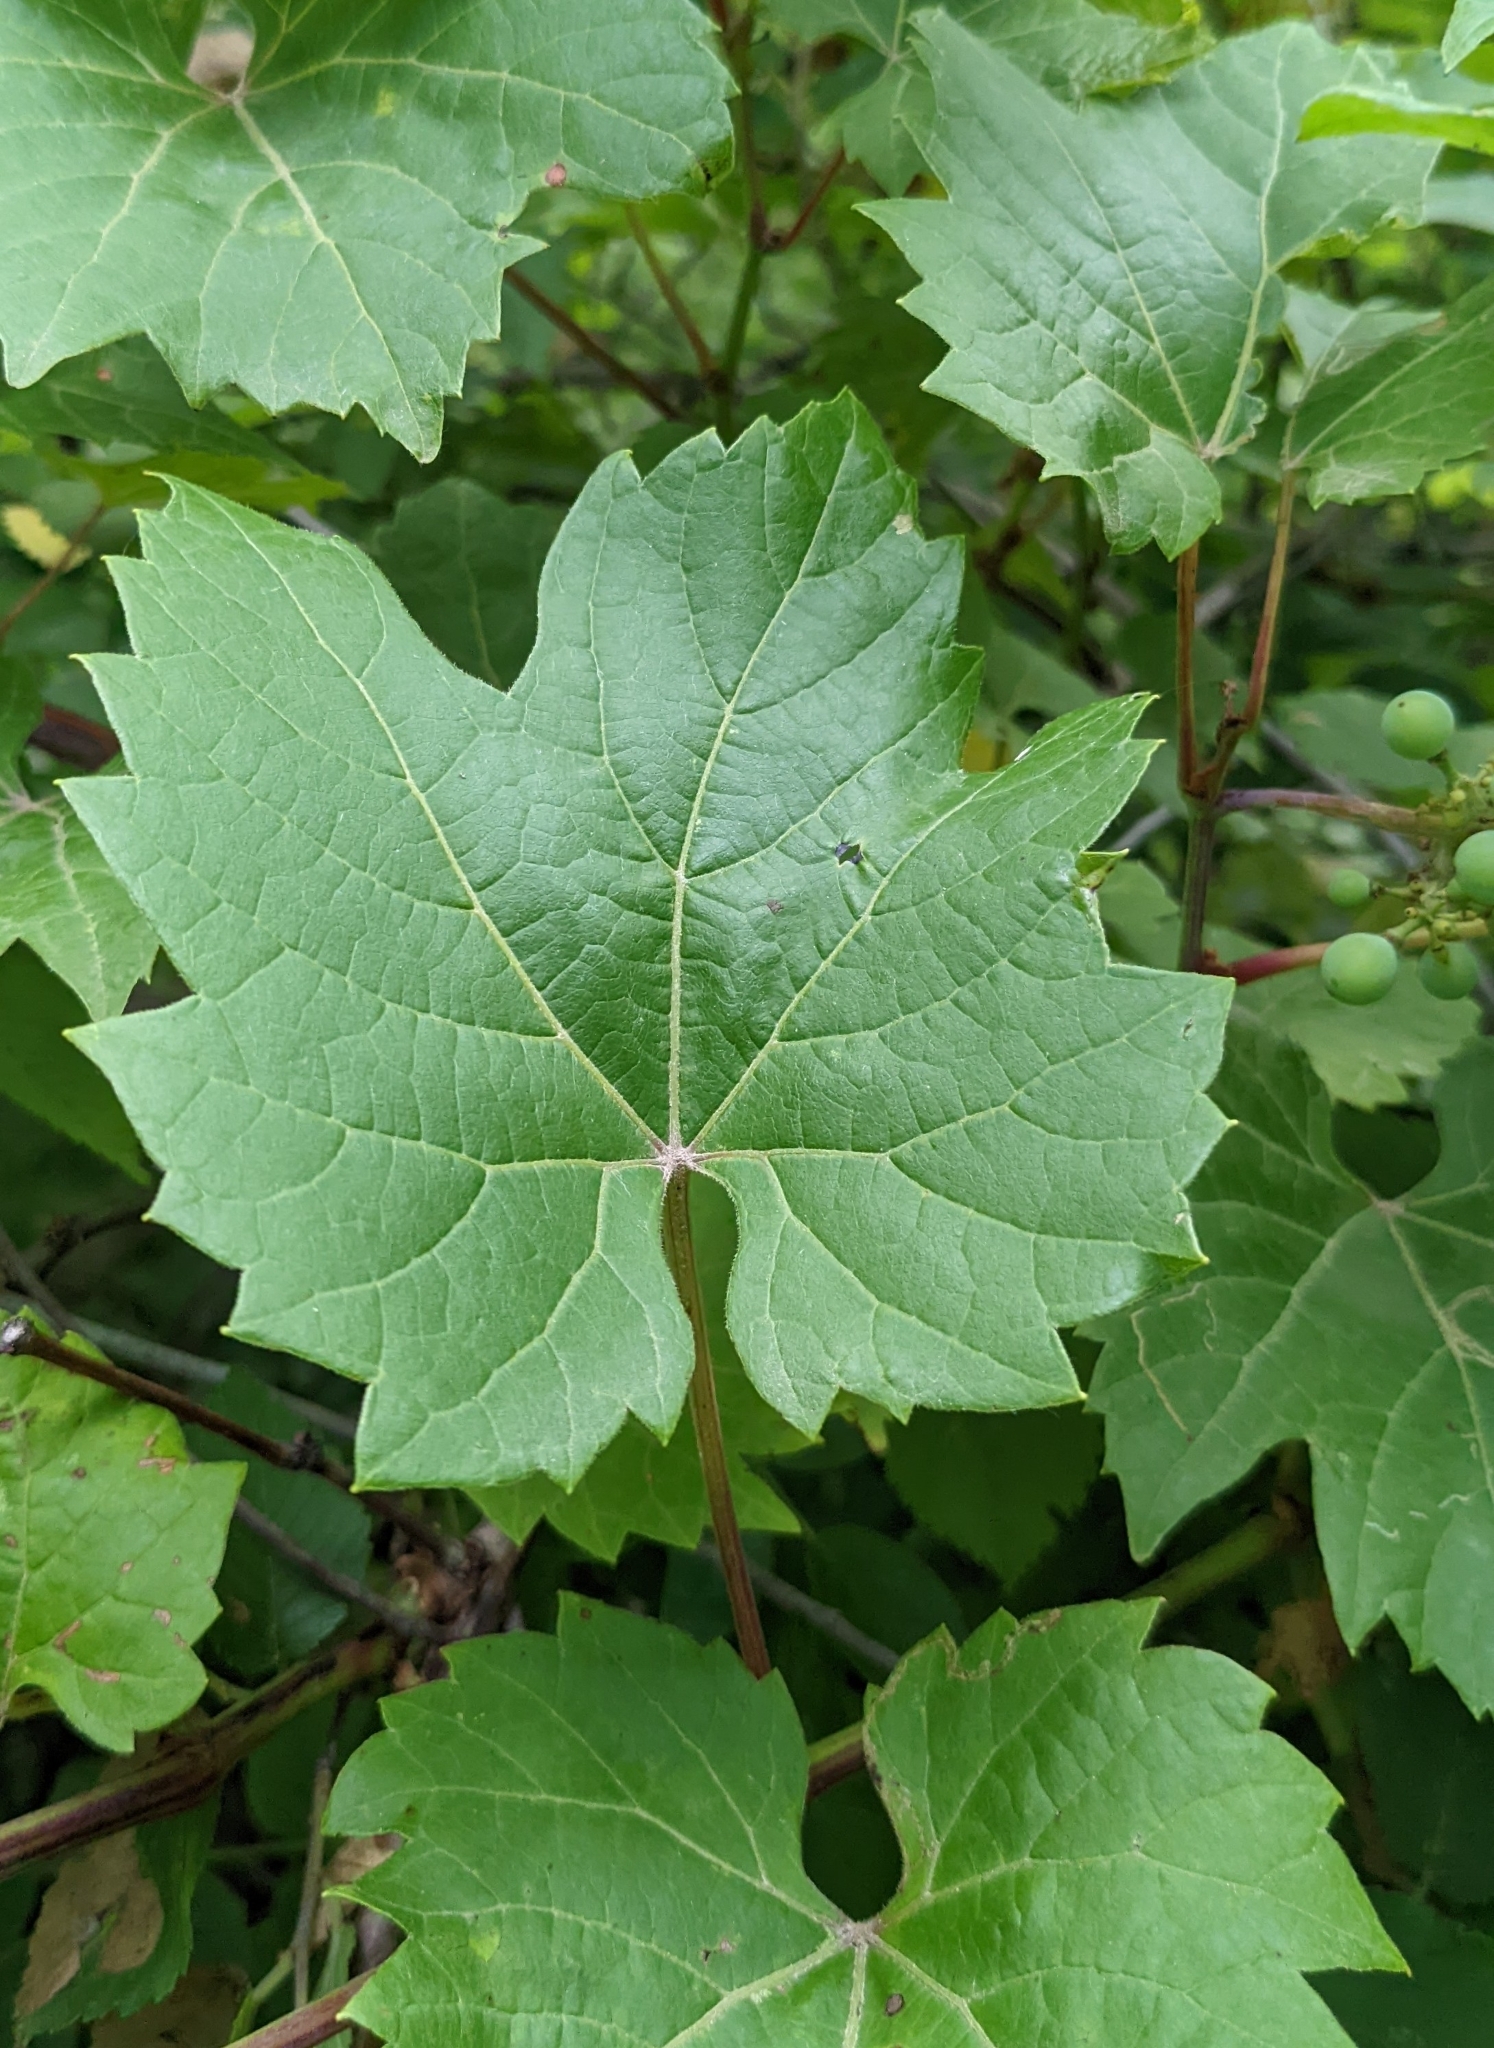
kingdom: Plantae
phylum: Tracheophyta
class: Magnoliopsida
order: Vitales
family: Vitaceae
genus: Vitis
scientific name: Vitis riparia
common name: Frost grape
